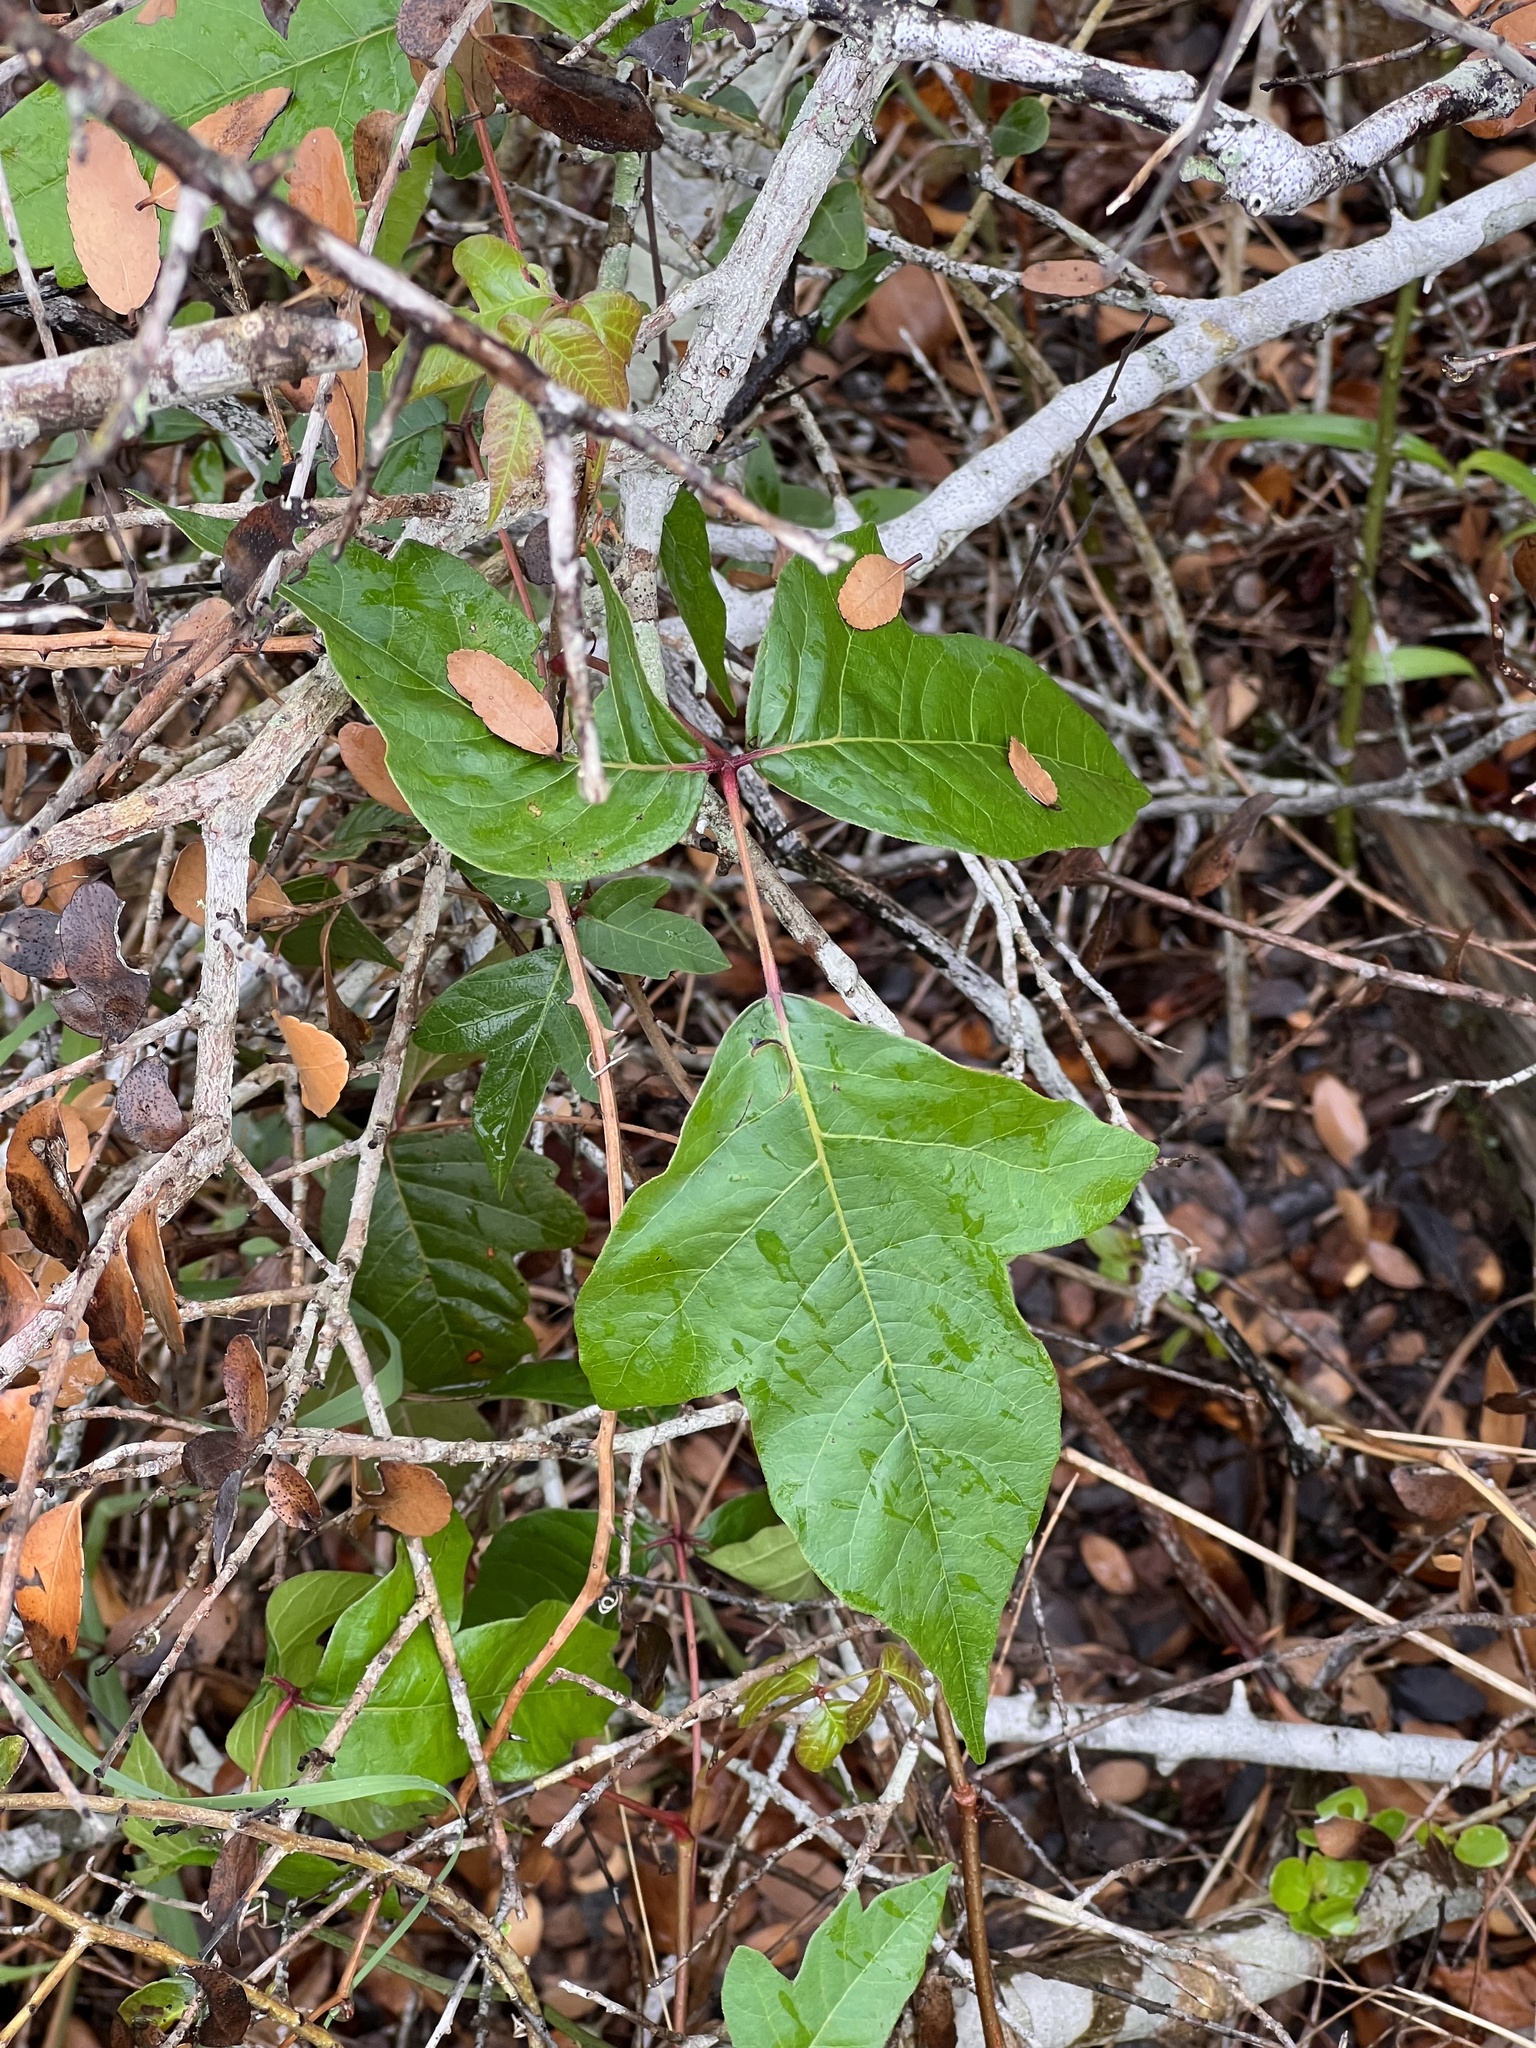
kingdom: Plantae
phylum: Tracheophyta
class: Magnoliopsida
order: Sapindales
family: Anacardiaceae
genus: Toxicodendron
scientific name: Toxicodendron radicans
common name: Poison ivy
